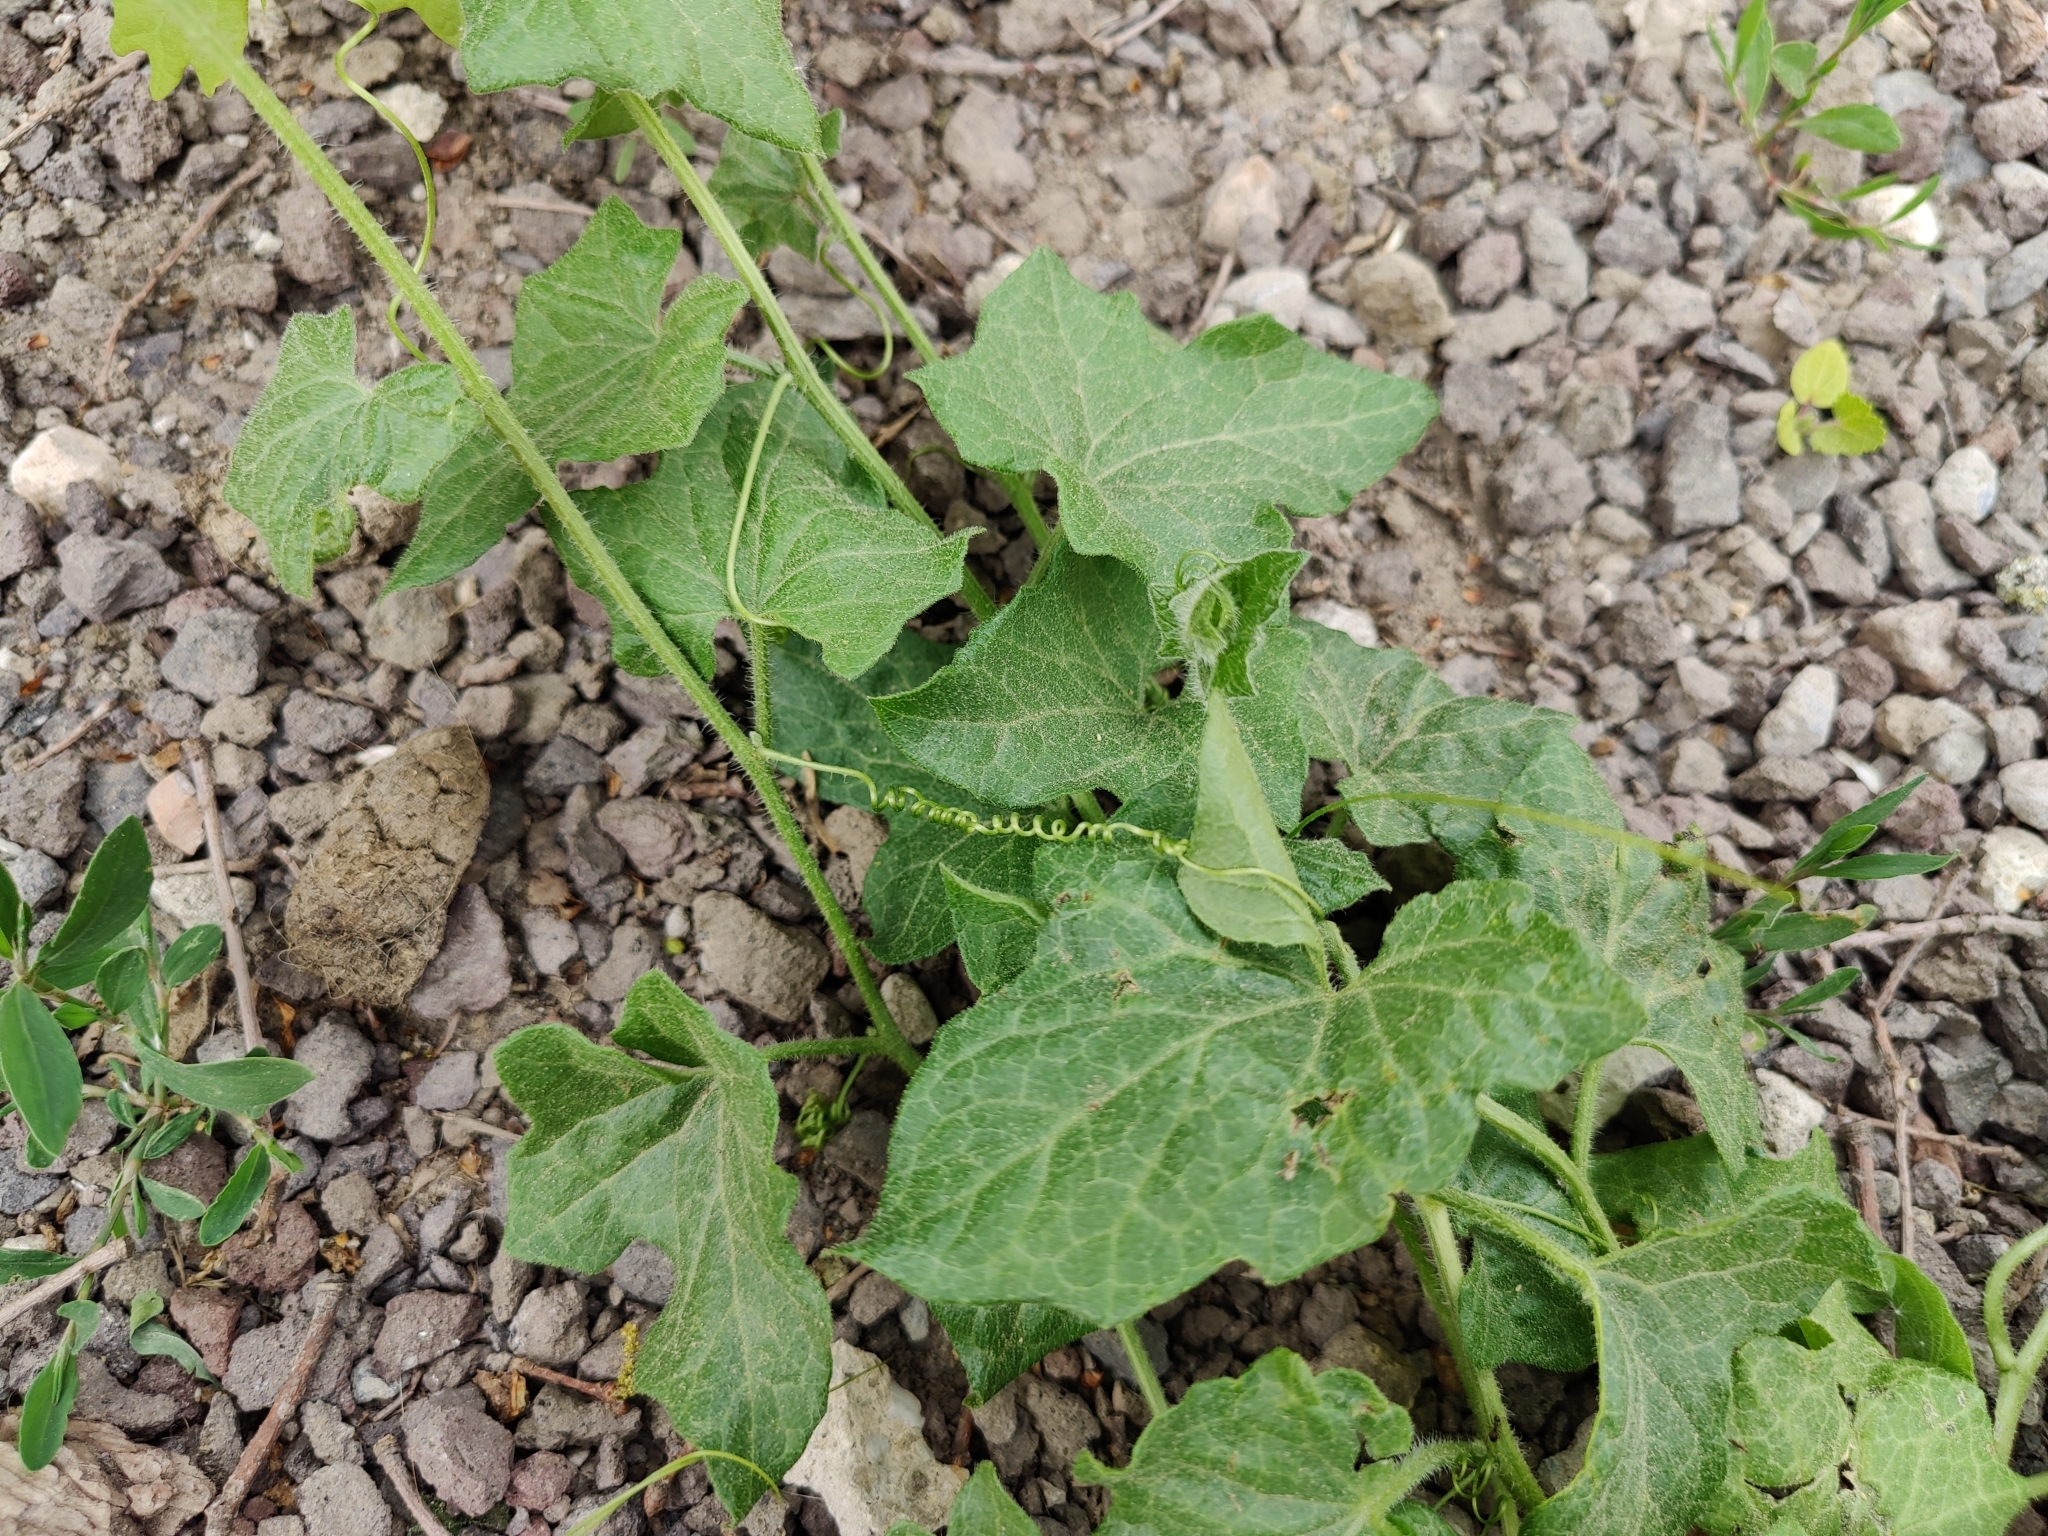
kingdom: Plantae
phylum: Tracheophyta
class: Magnoliopsida
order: Cucurbitales
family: Cucurbitaceae
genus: Bryonia
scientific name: Bryonia cretica
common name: Cretan bryony
